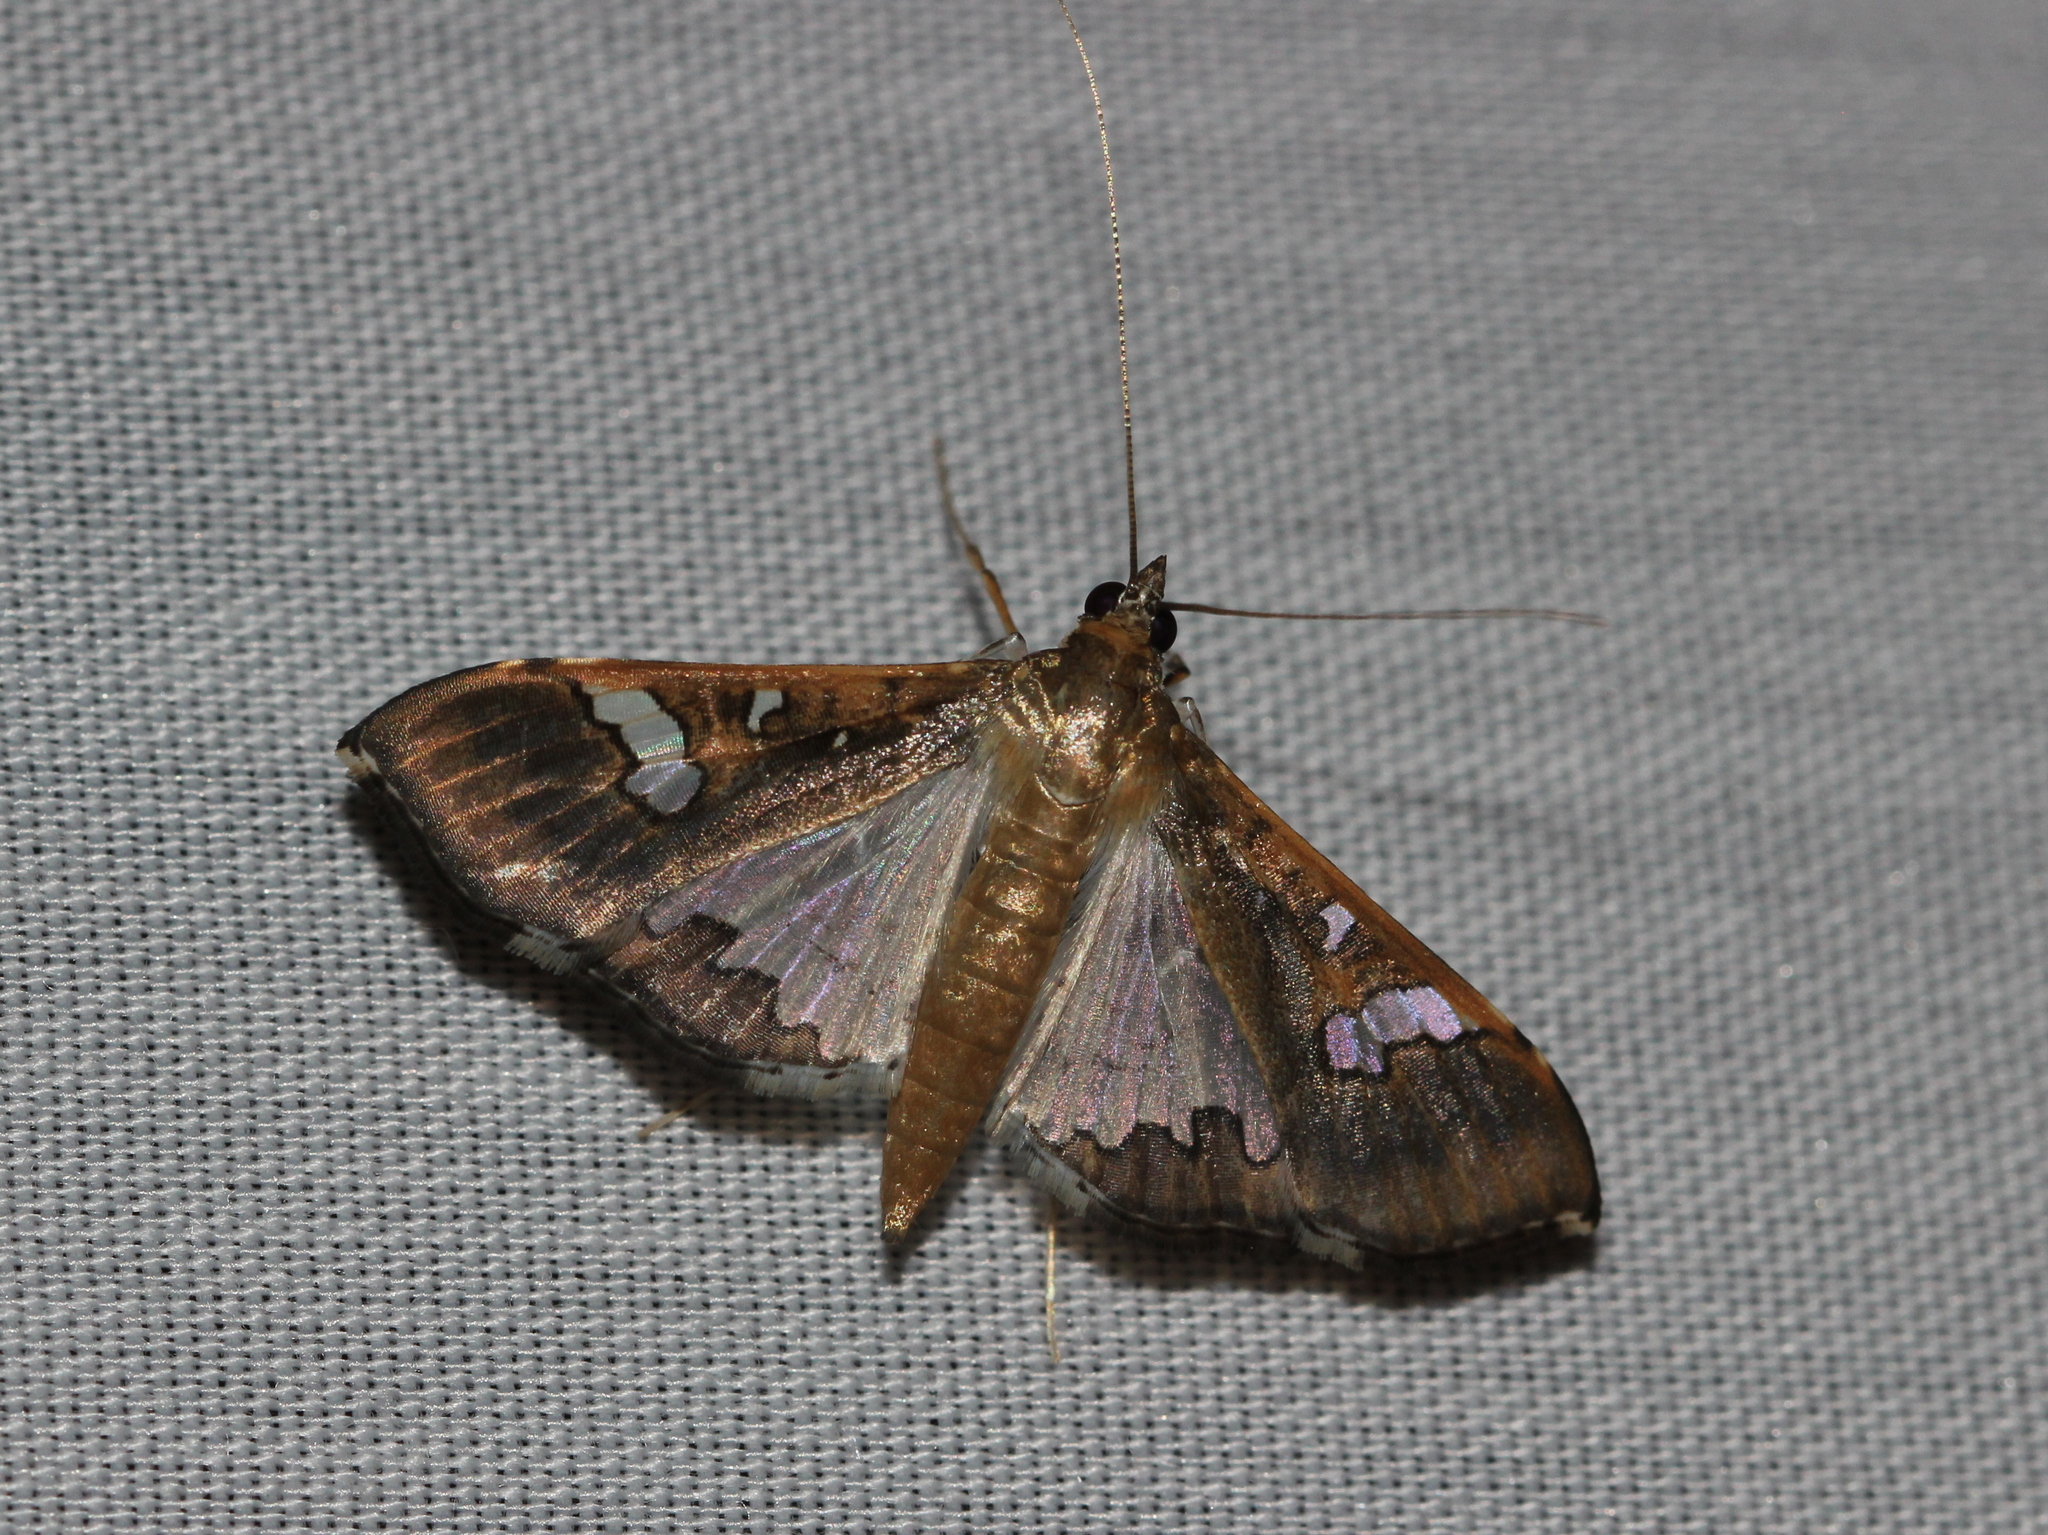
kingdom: Animalia
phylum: Arthropoda
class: Insecta
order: Lepidoptera
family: Crambidae
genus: Maruca
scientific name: Maruca vitrata
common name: Maruca pod borer
